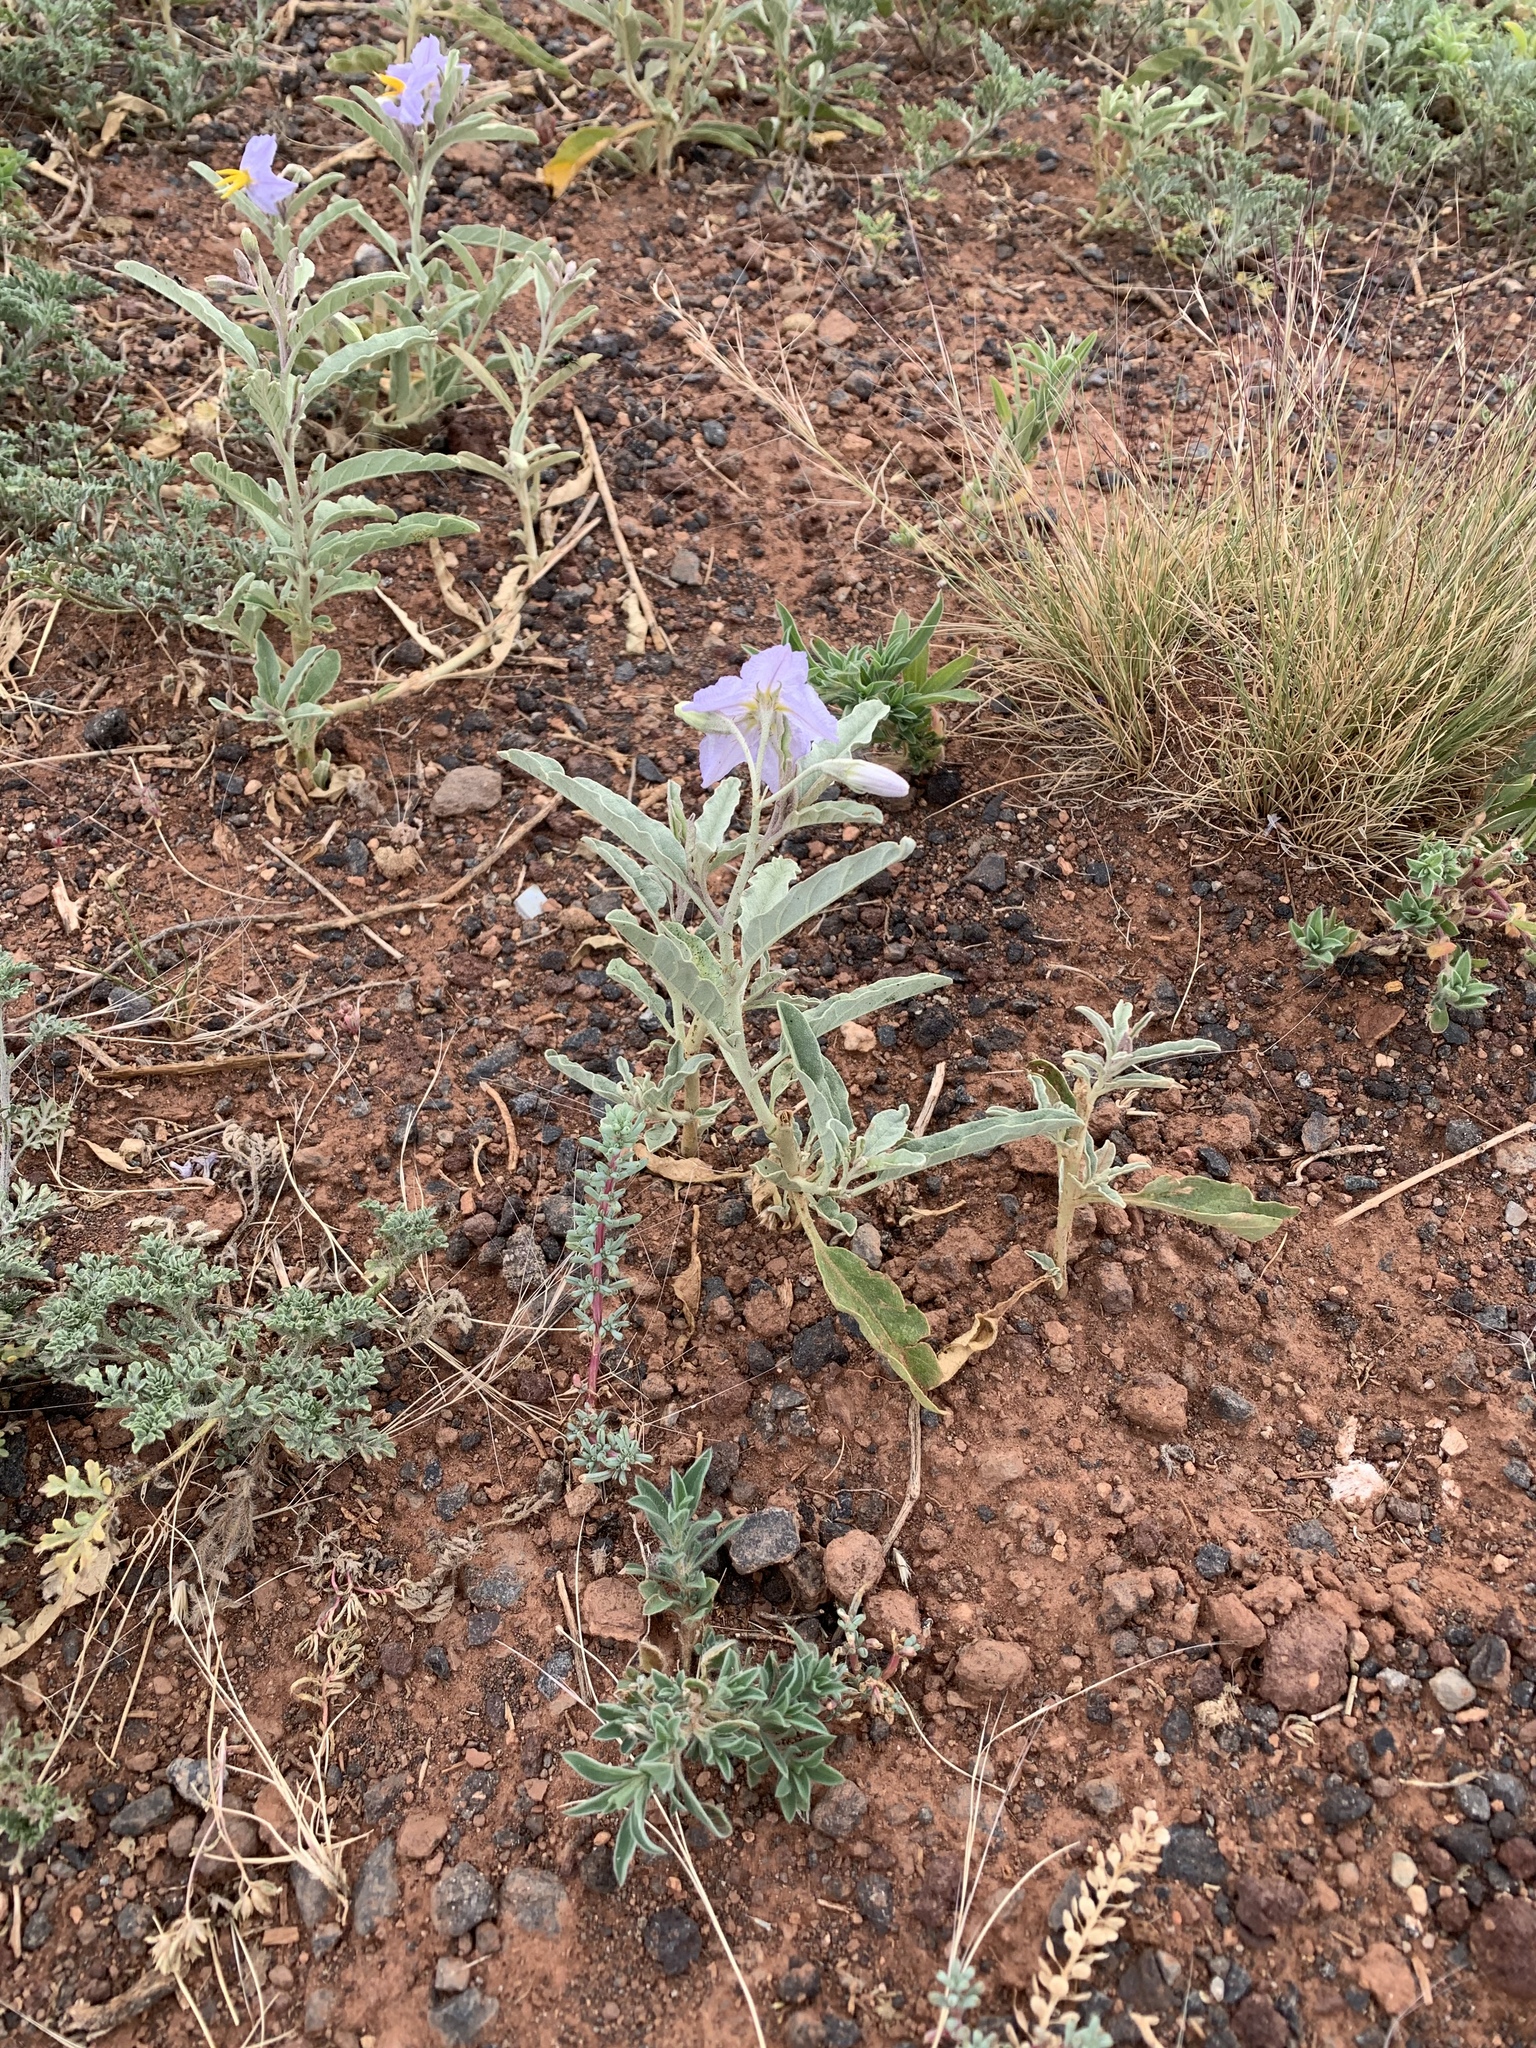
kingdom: Plantae
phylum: Tracheophyta
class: Magnoliopsida
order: Solanales
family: Solanaceae
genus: Solanum
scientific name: Solanum elaeagnifolium
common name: Silverleaf nightshade
